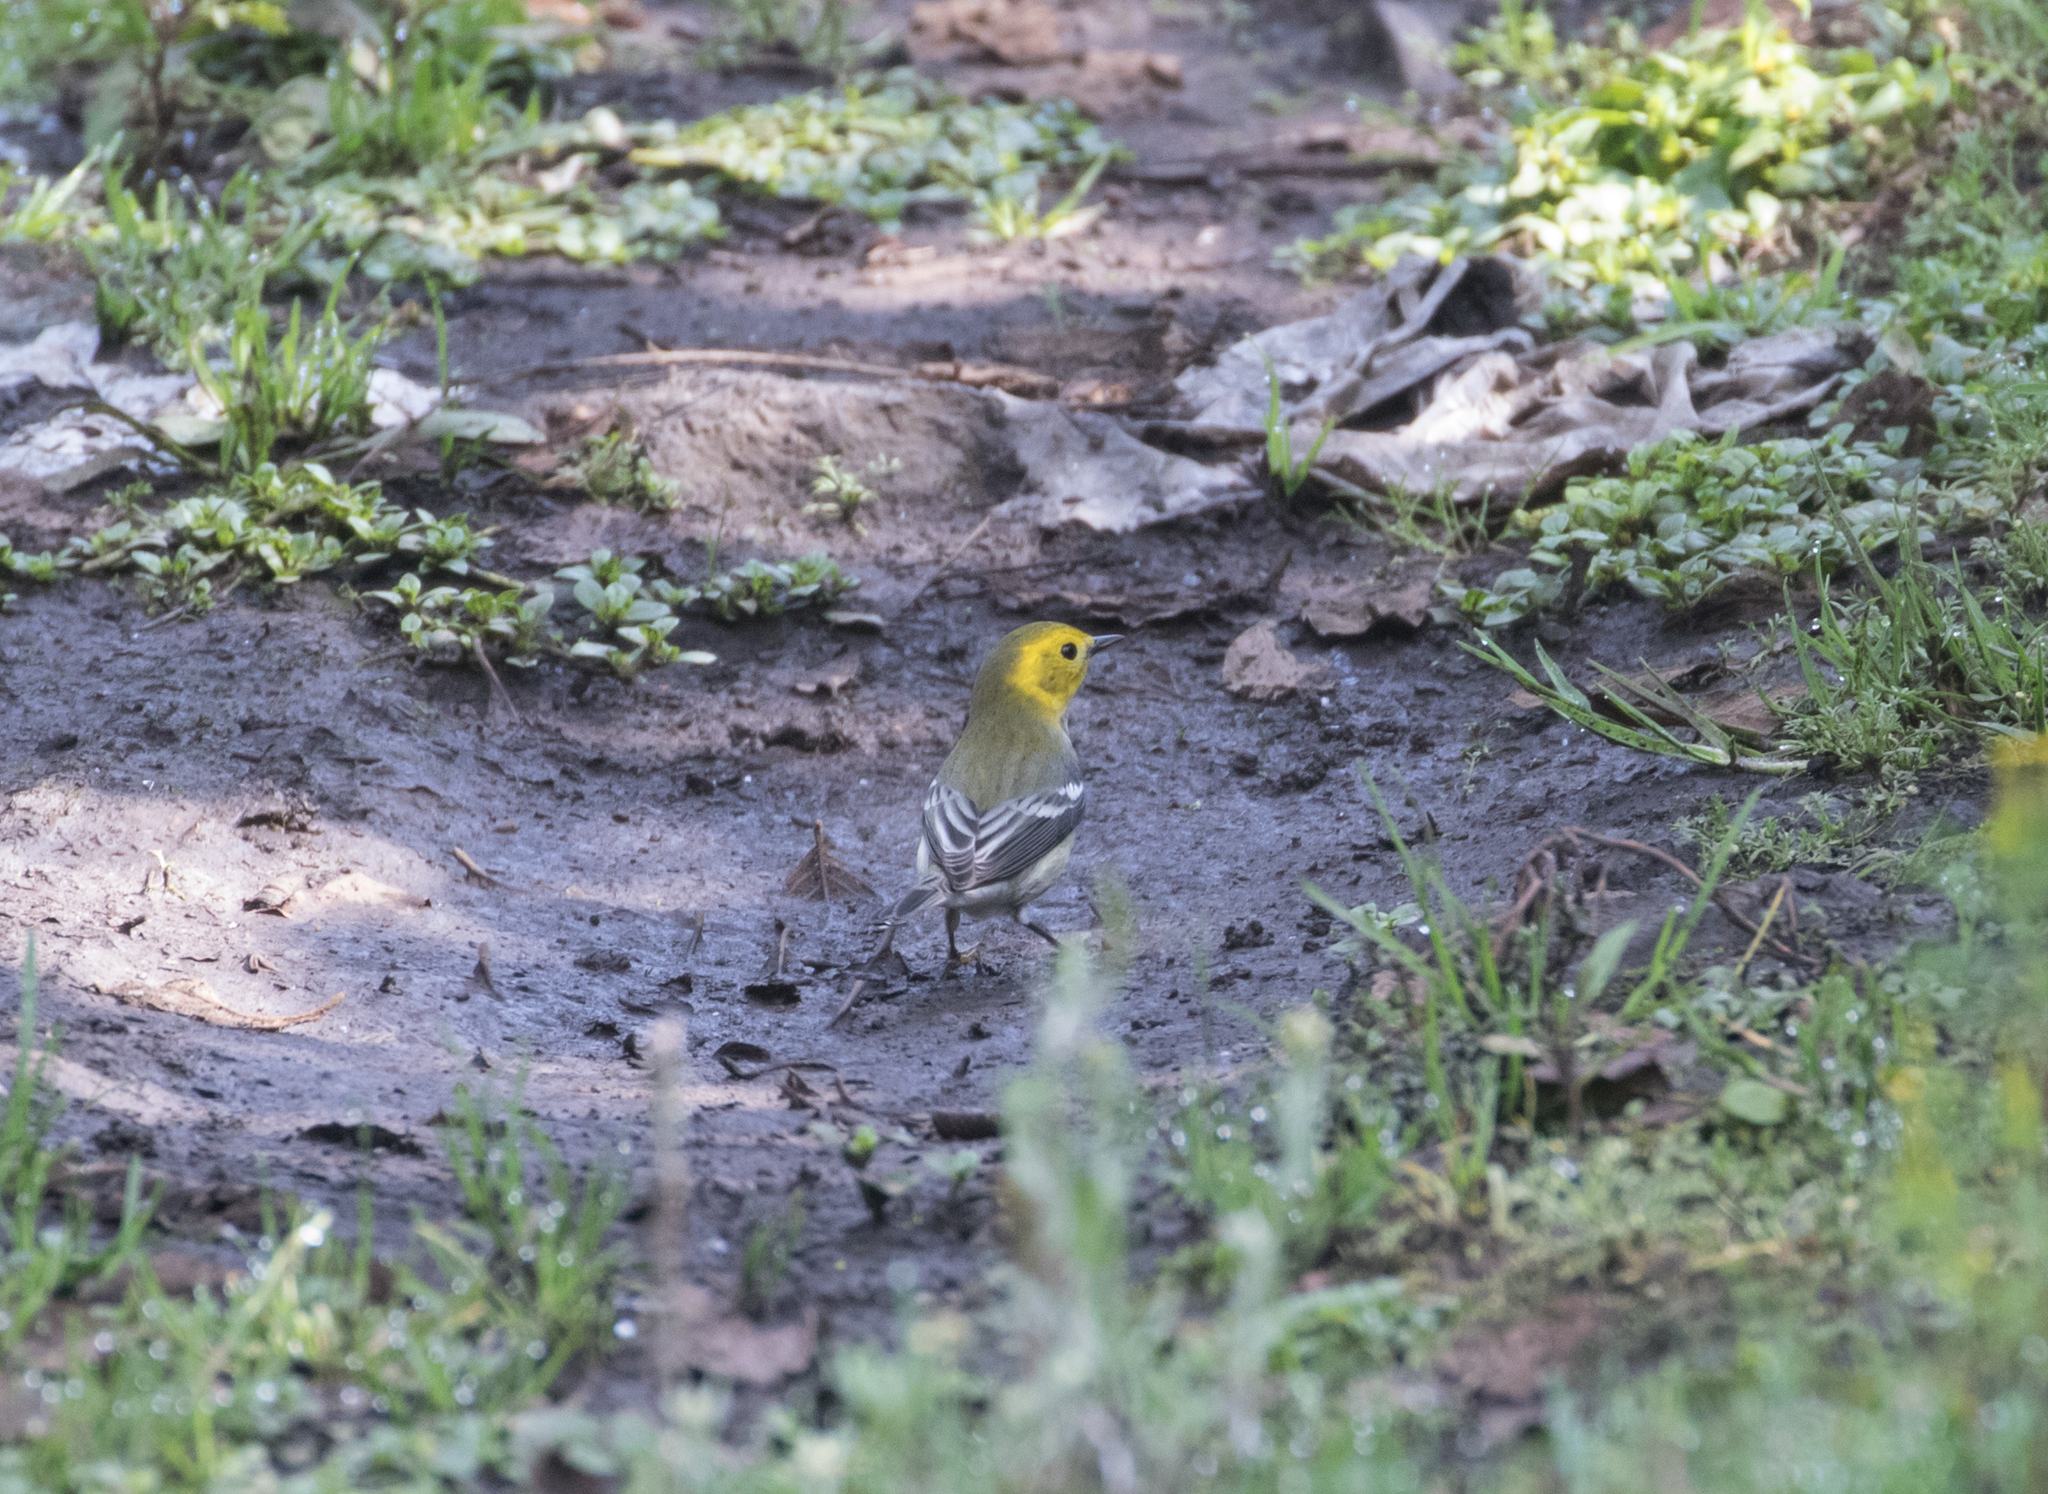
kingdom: Animalia
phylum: Chordata
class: Aves
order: Passeriformes
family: Parulidae
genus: Setophaga
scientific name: Setophaga occidentalis
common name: Hermit warbler
